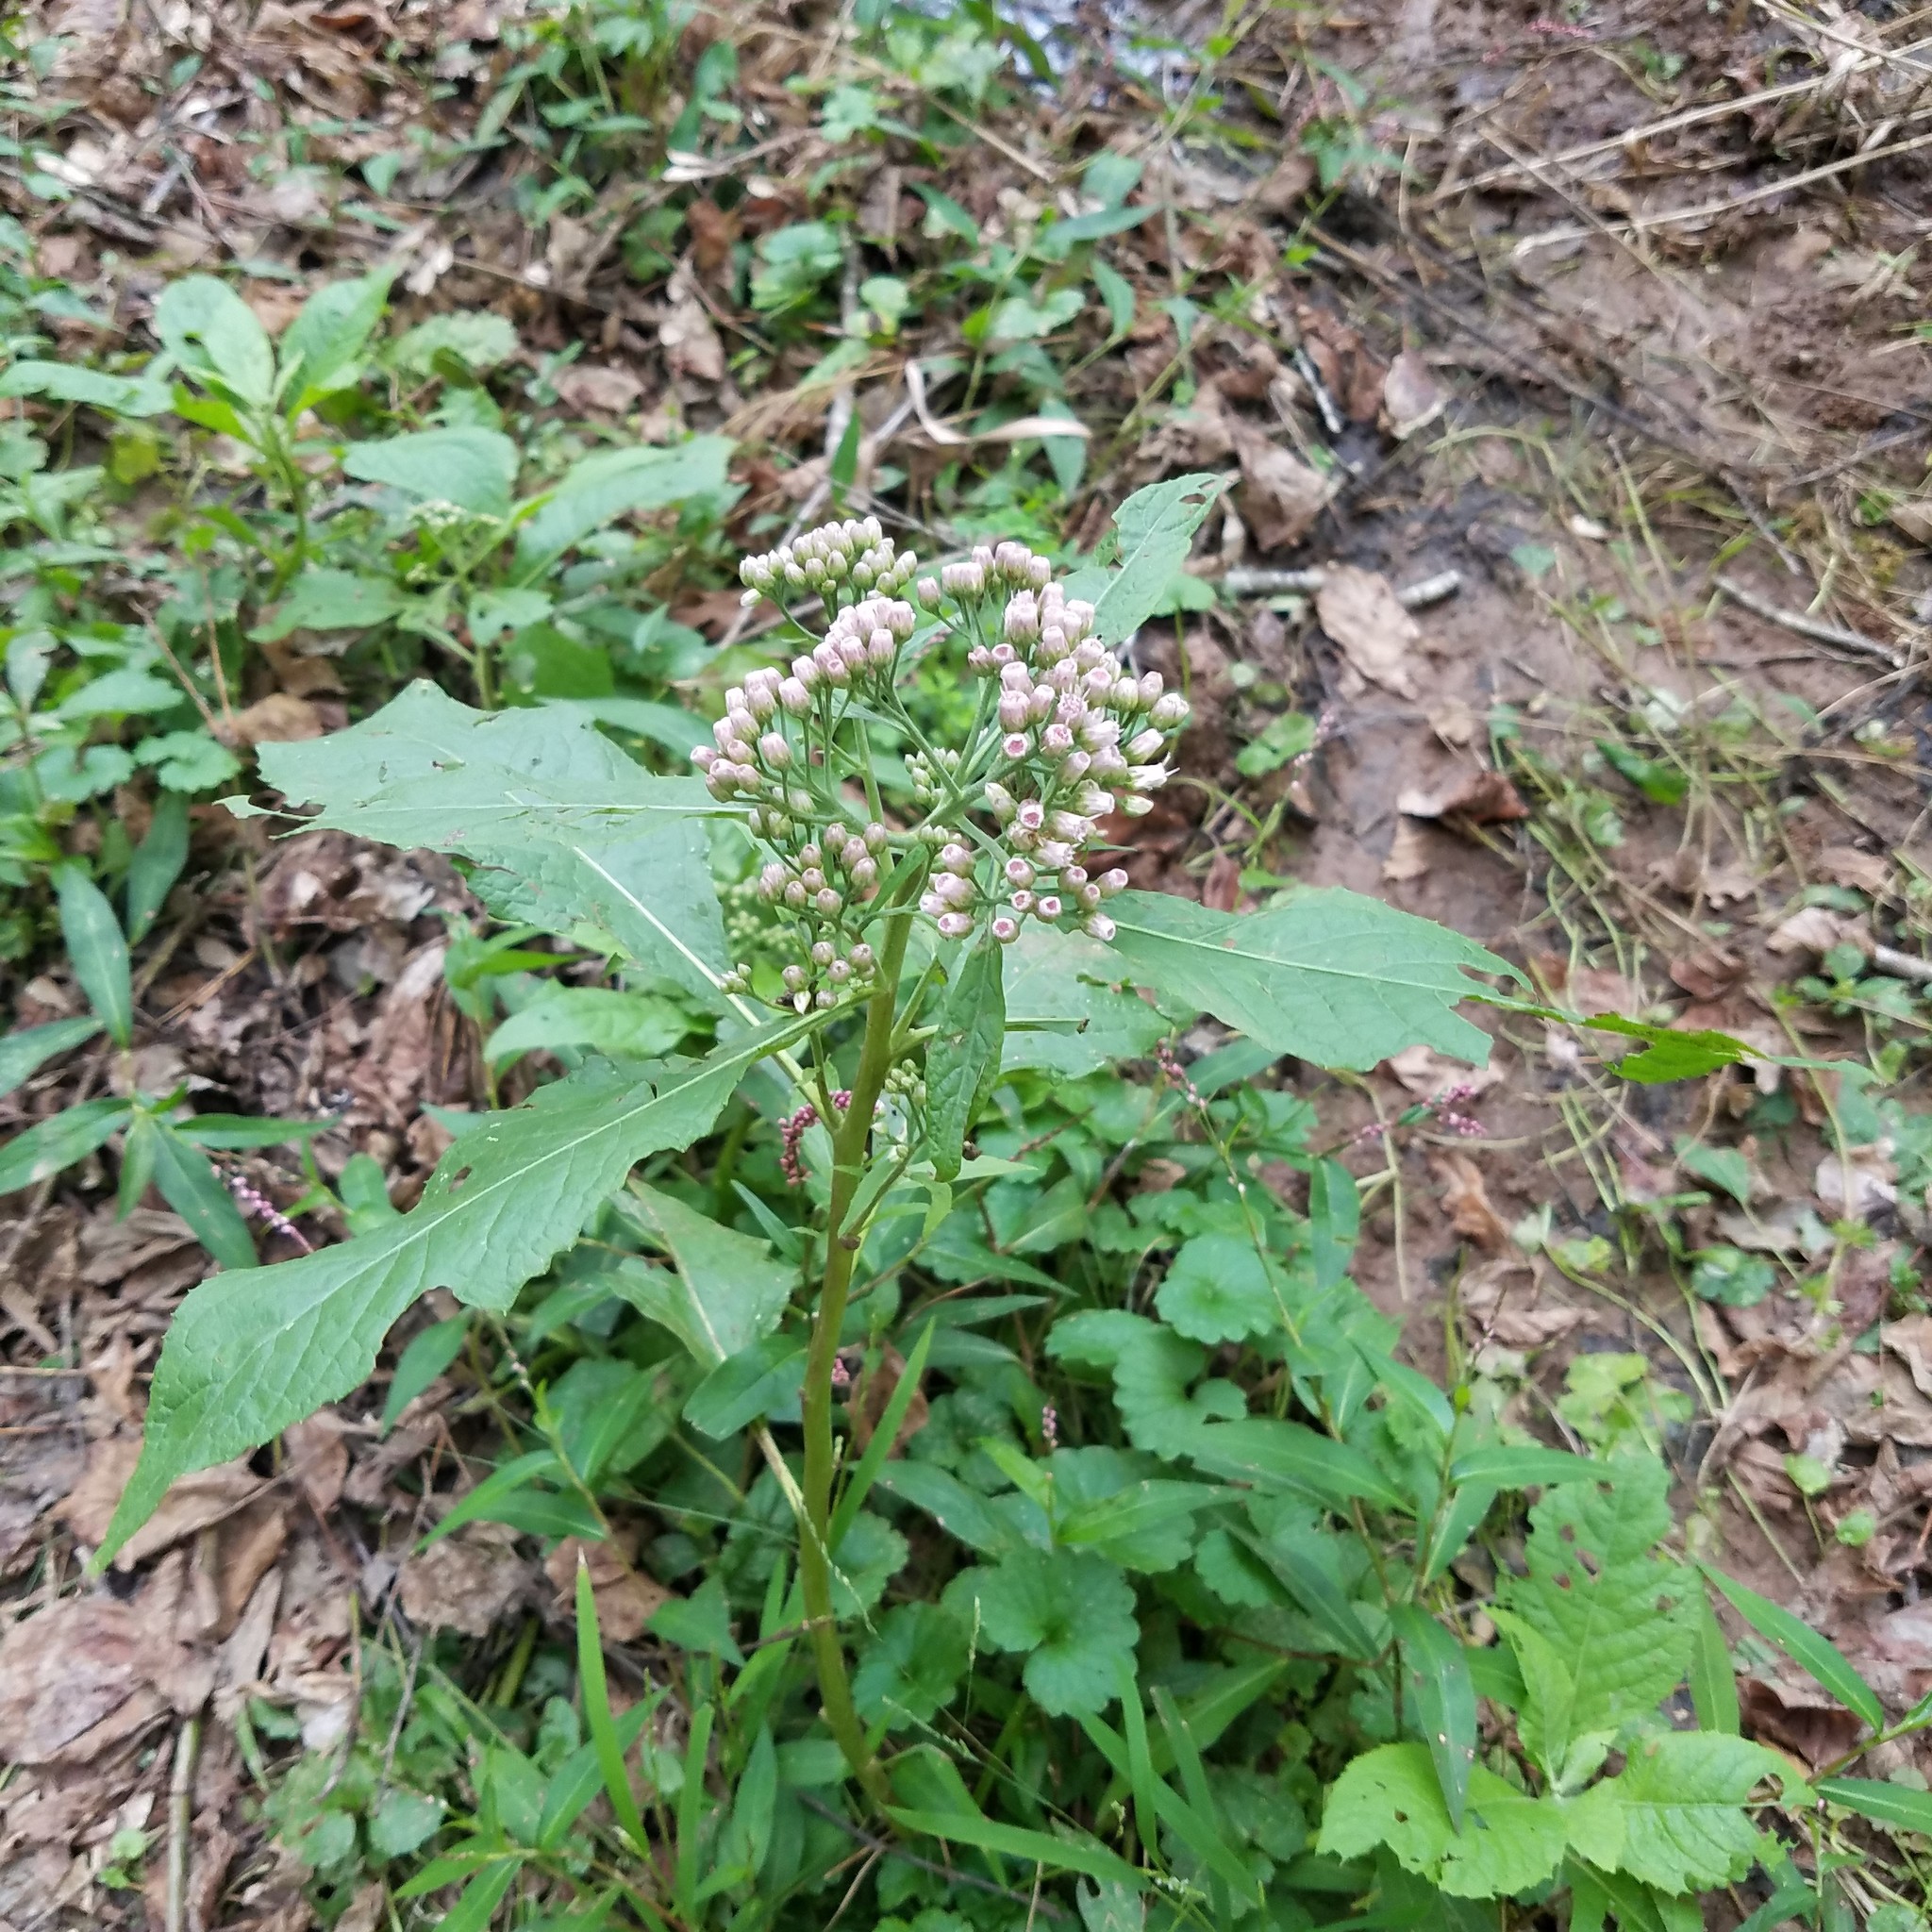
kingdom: Plantae
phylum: Tracheophyta
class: Magnoliopsida
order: Asterales
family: Asteraceae
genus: Pluchea
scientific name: Pluchea camphorata
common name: Camphor pluchea
